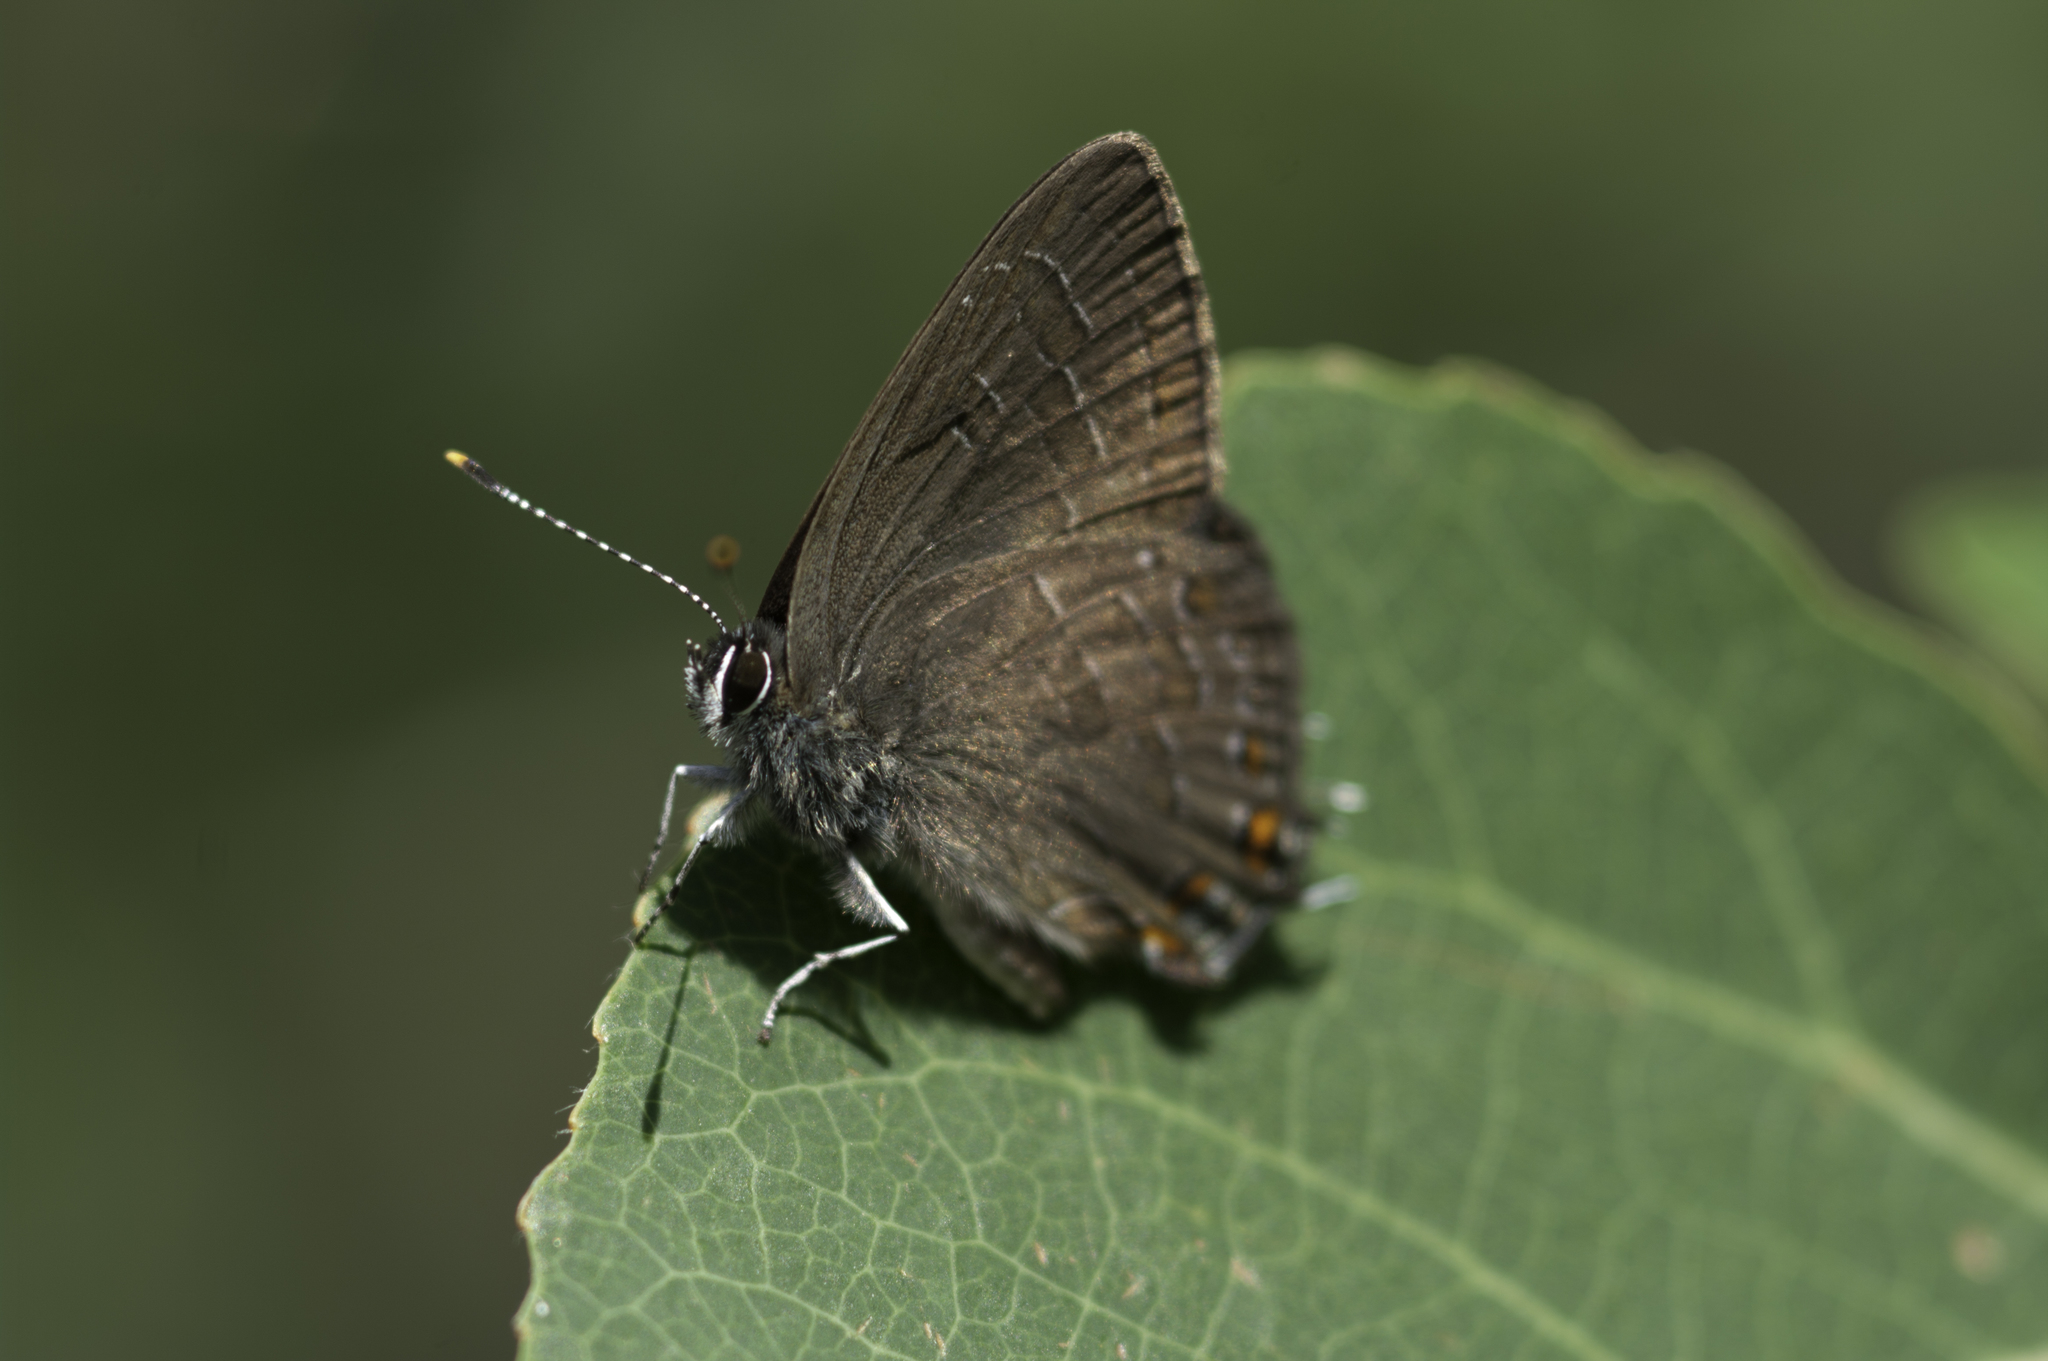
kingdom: Animalia
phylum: Arthropoda
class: Insecta
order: Lepidoptera
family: Lycaenidae
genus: Satyrium
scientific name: Satyrium liparops
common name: Striped hairstreak
